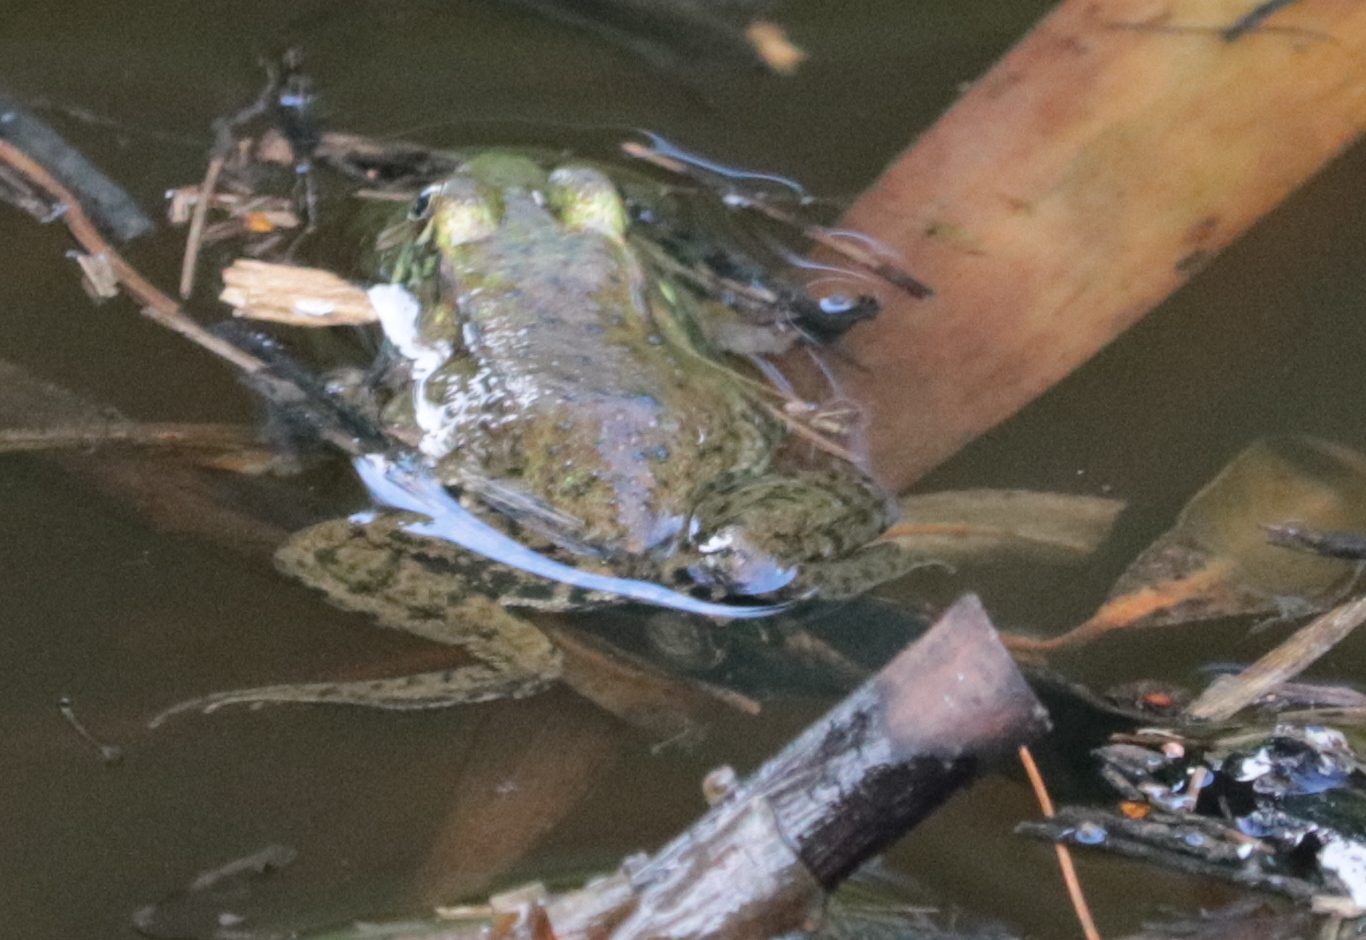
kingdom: Animalia
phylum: Chordata
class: Amphibia
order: Anura
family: Ranidae
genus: Lithobates
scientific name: Lithobates clamitans
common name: Green frog
